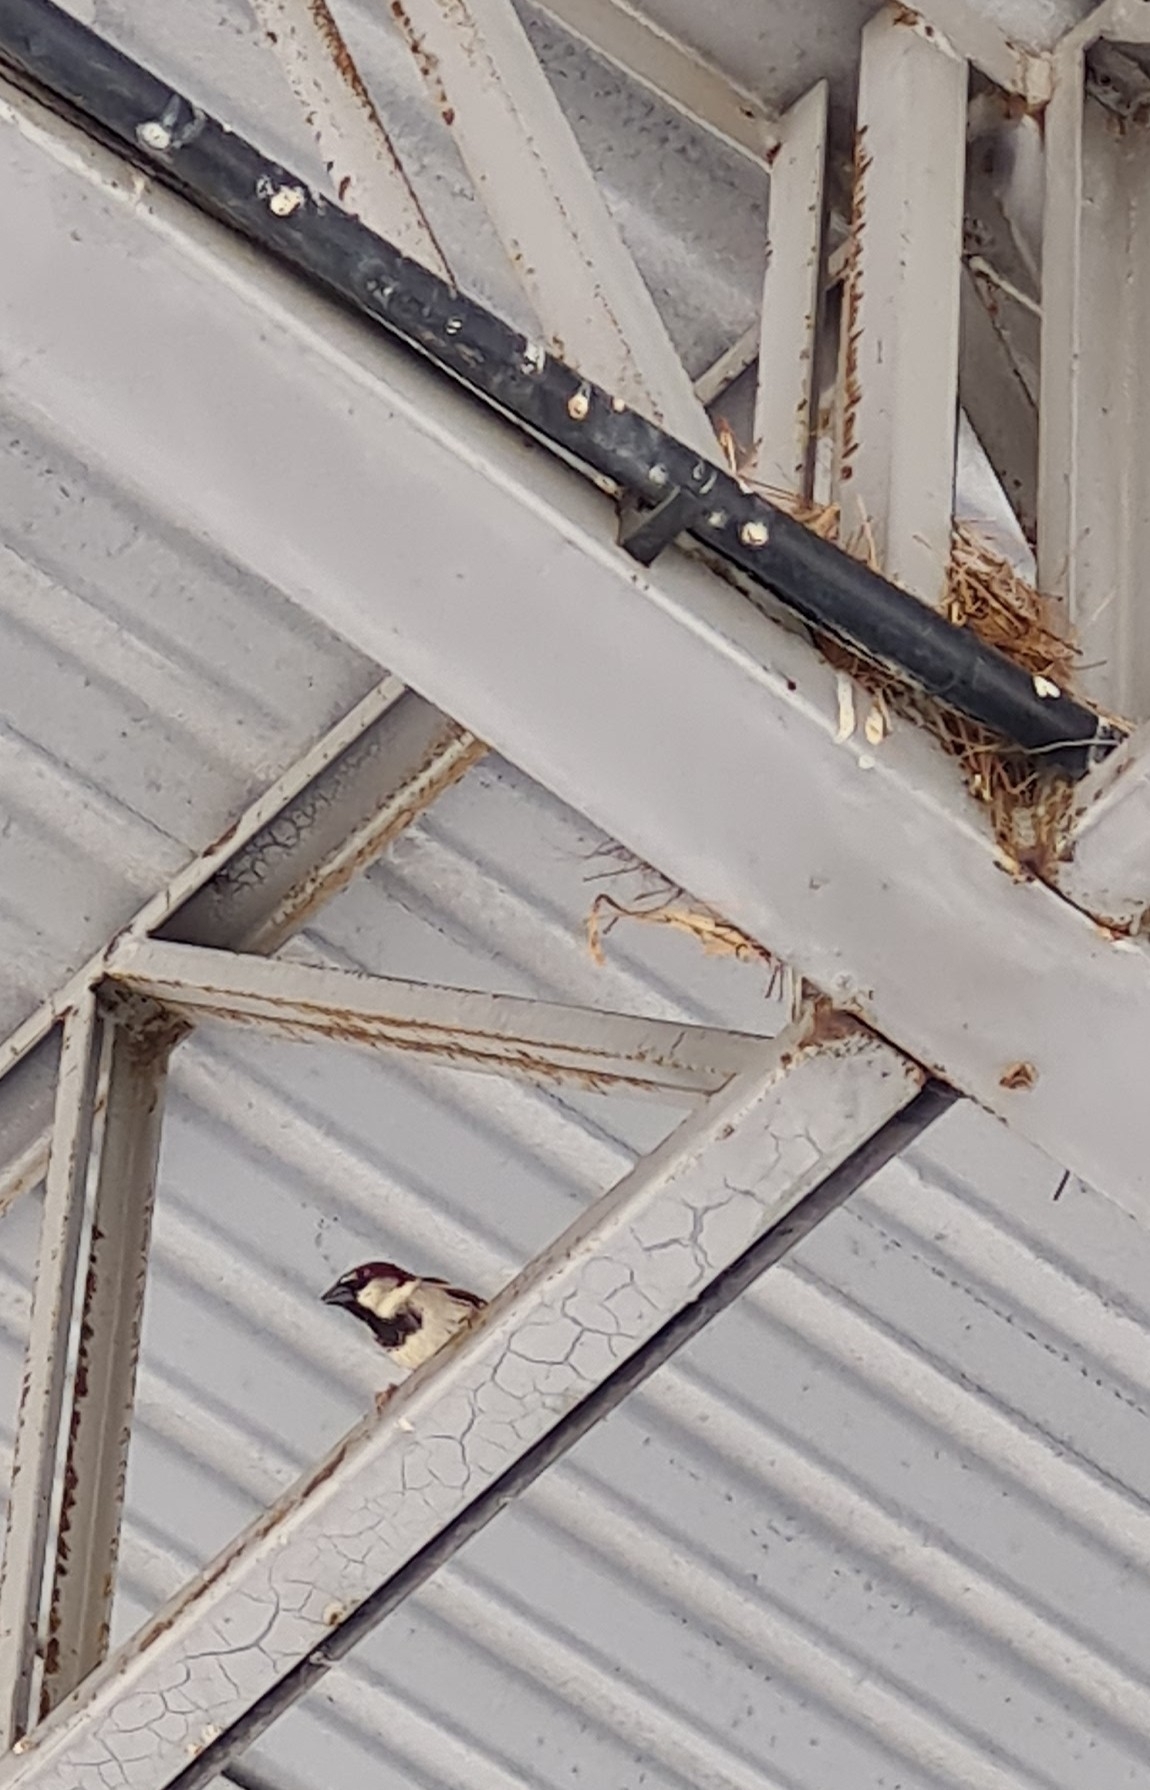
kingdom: Animalia
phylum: Chordata
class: Aves
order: Passeriformes
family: Passeridae
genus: Passer
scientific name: Passer domesticus
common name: House sparrow
